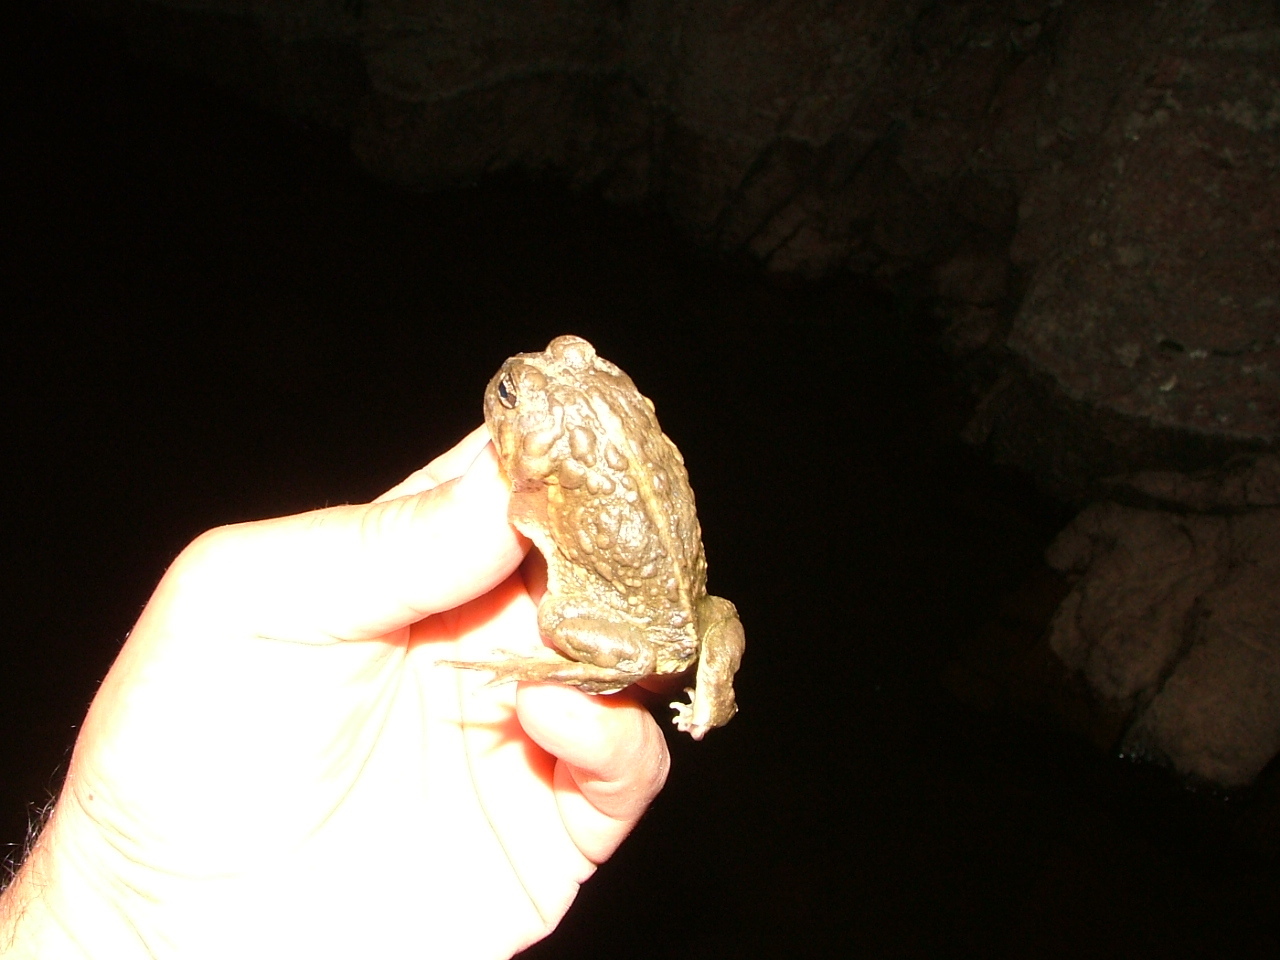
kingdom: Animalia
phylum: Chordata
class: Amphibia
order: Anura
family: Odontophrynidae
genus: Odontophrynus
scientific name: Odontophrynus americanus
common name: American ground frog
